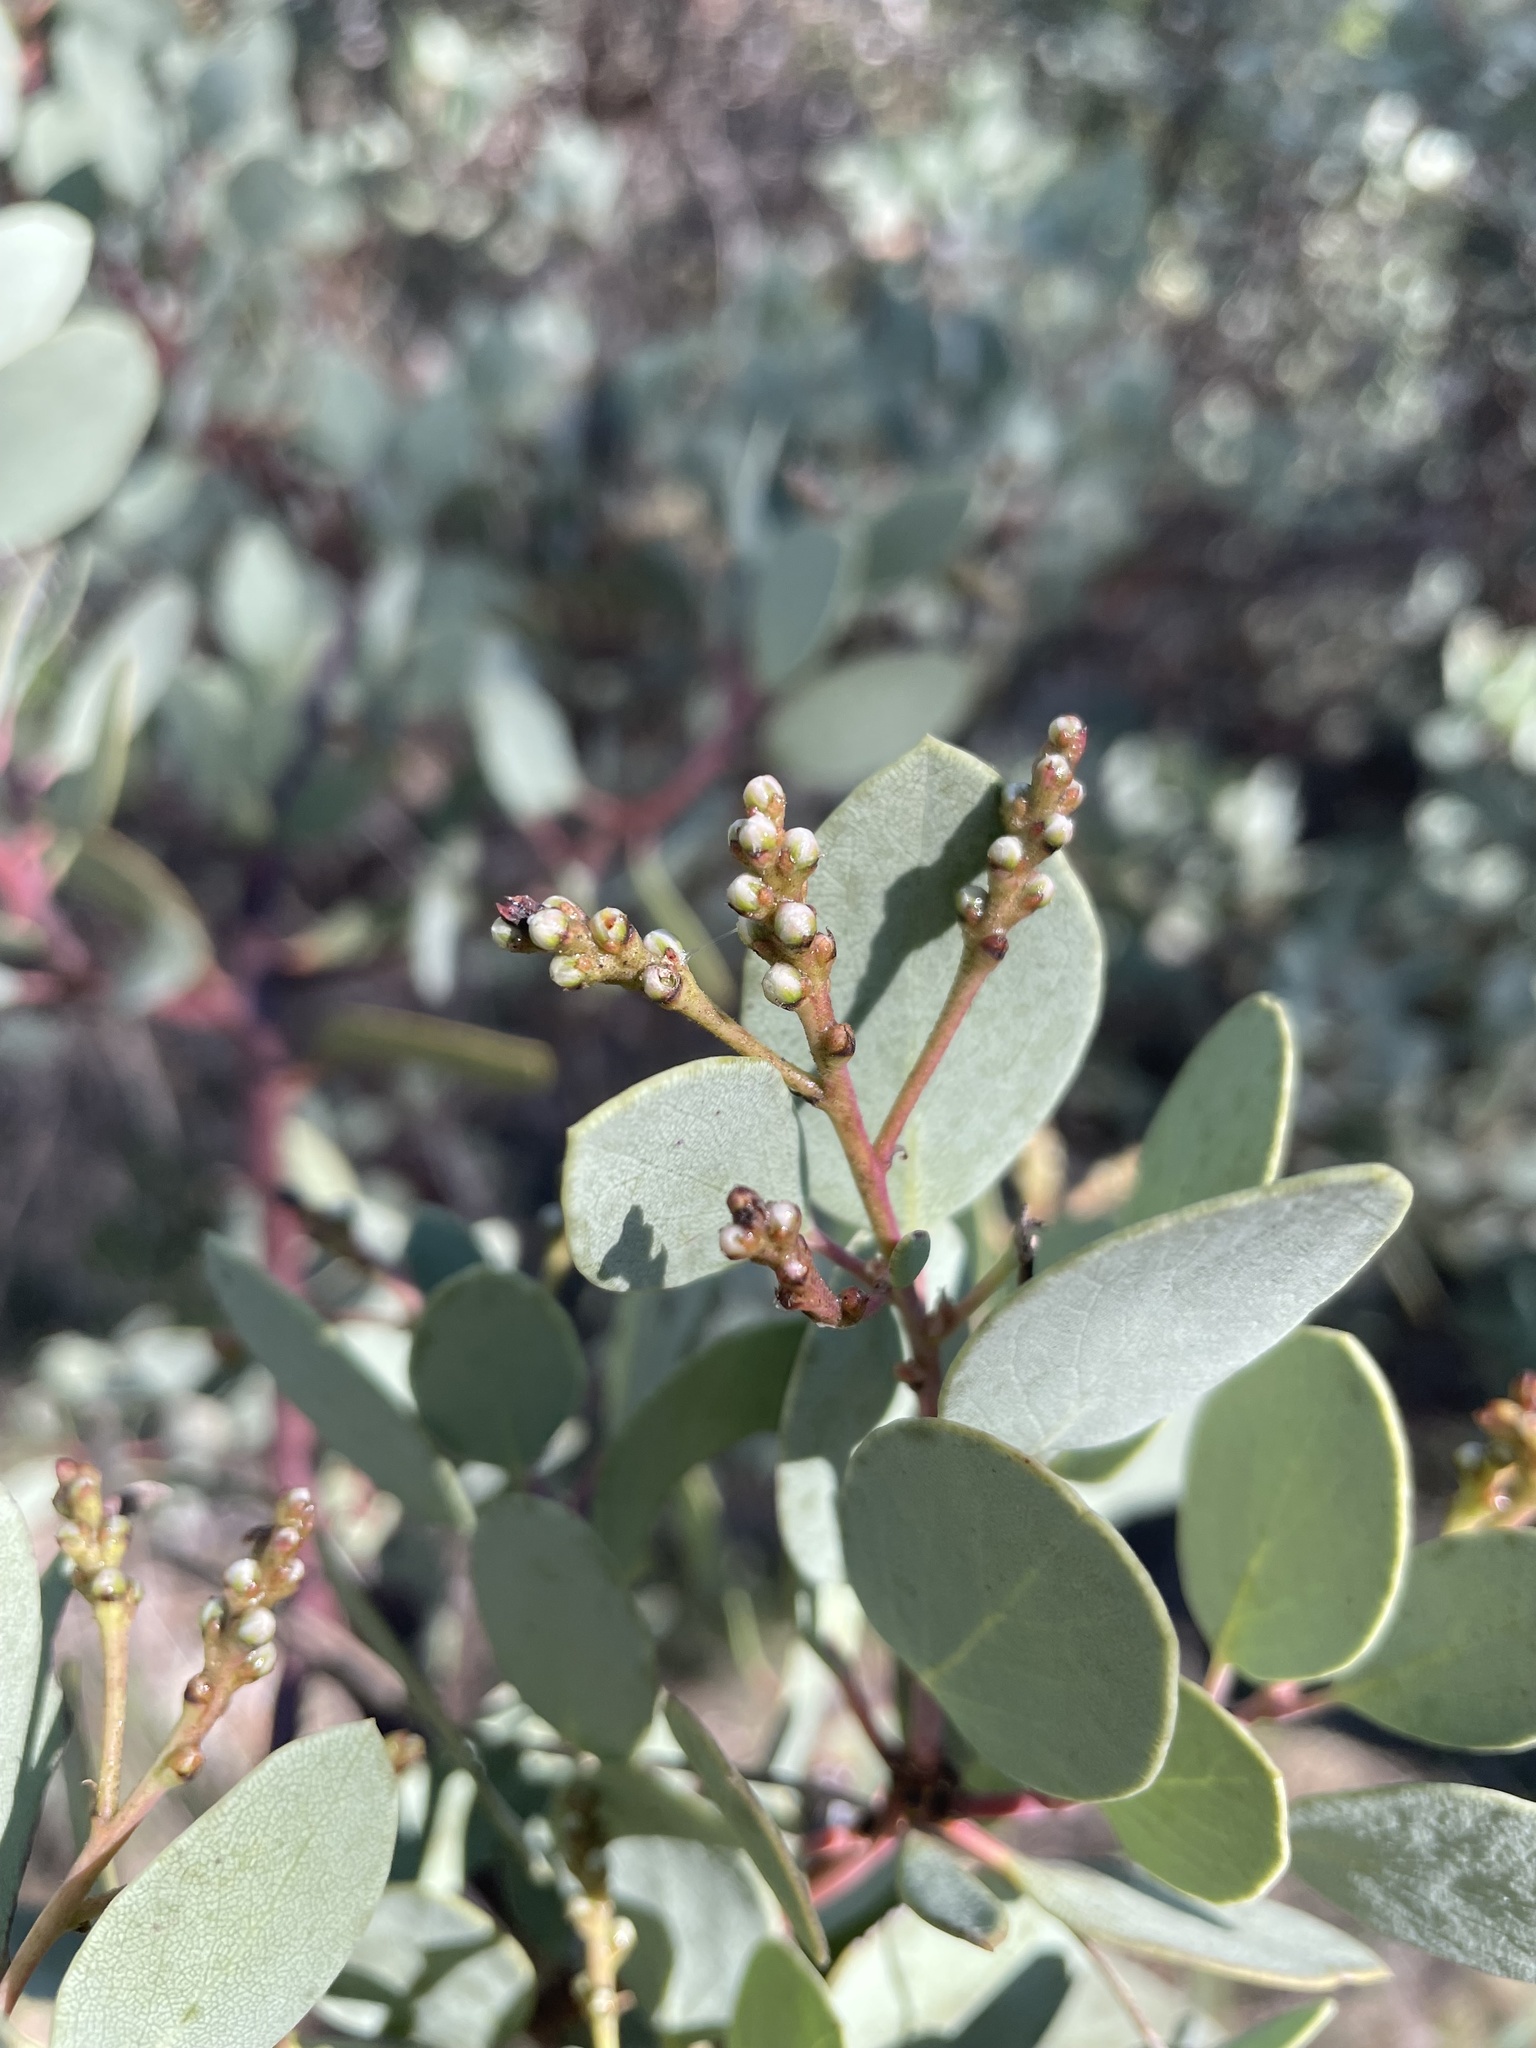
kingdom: Plantae
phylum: Tracheophyta
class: Magnoliopsida
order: Ericales
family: Ericaceae
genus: Arctostaphylos
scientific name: Arctostaphylos viscida
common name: White-leaf manzanita
